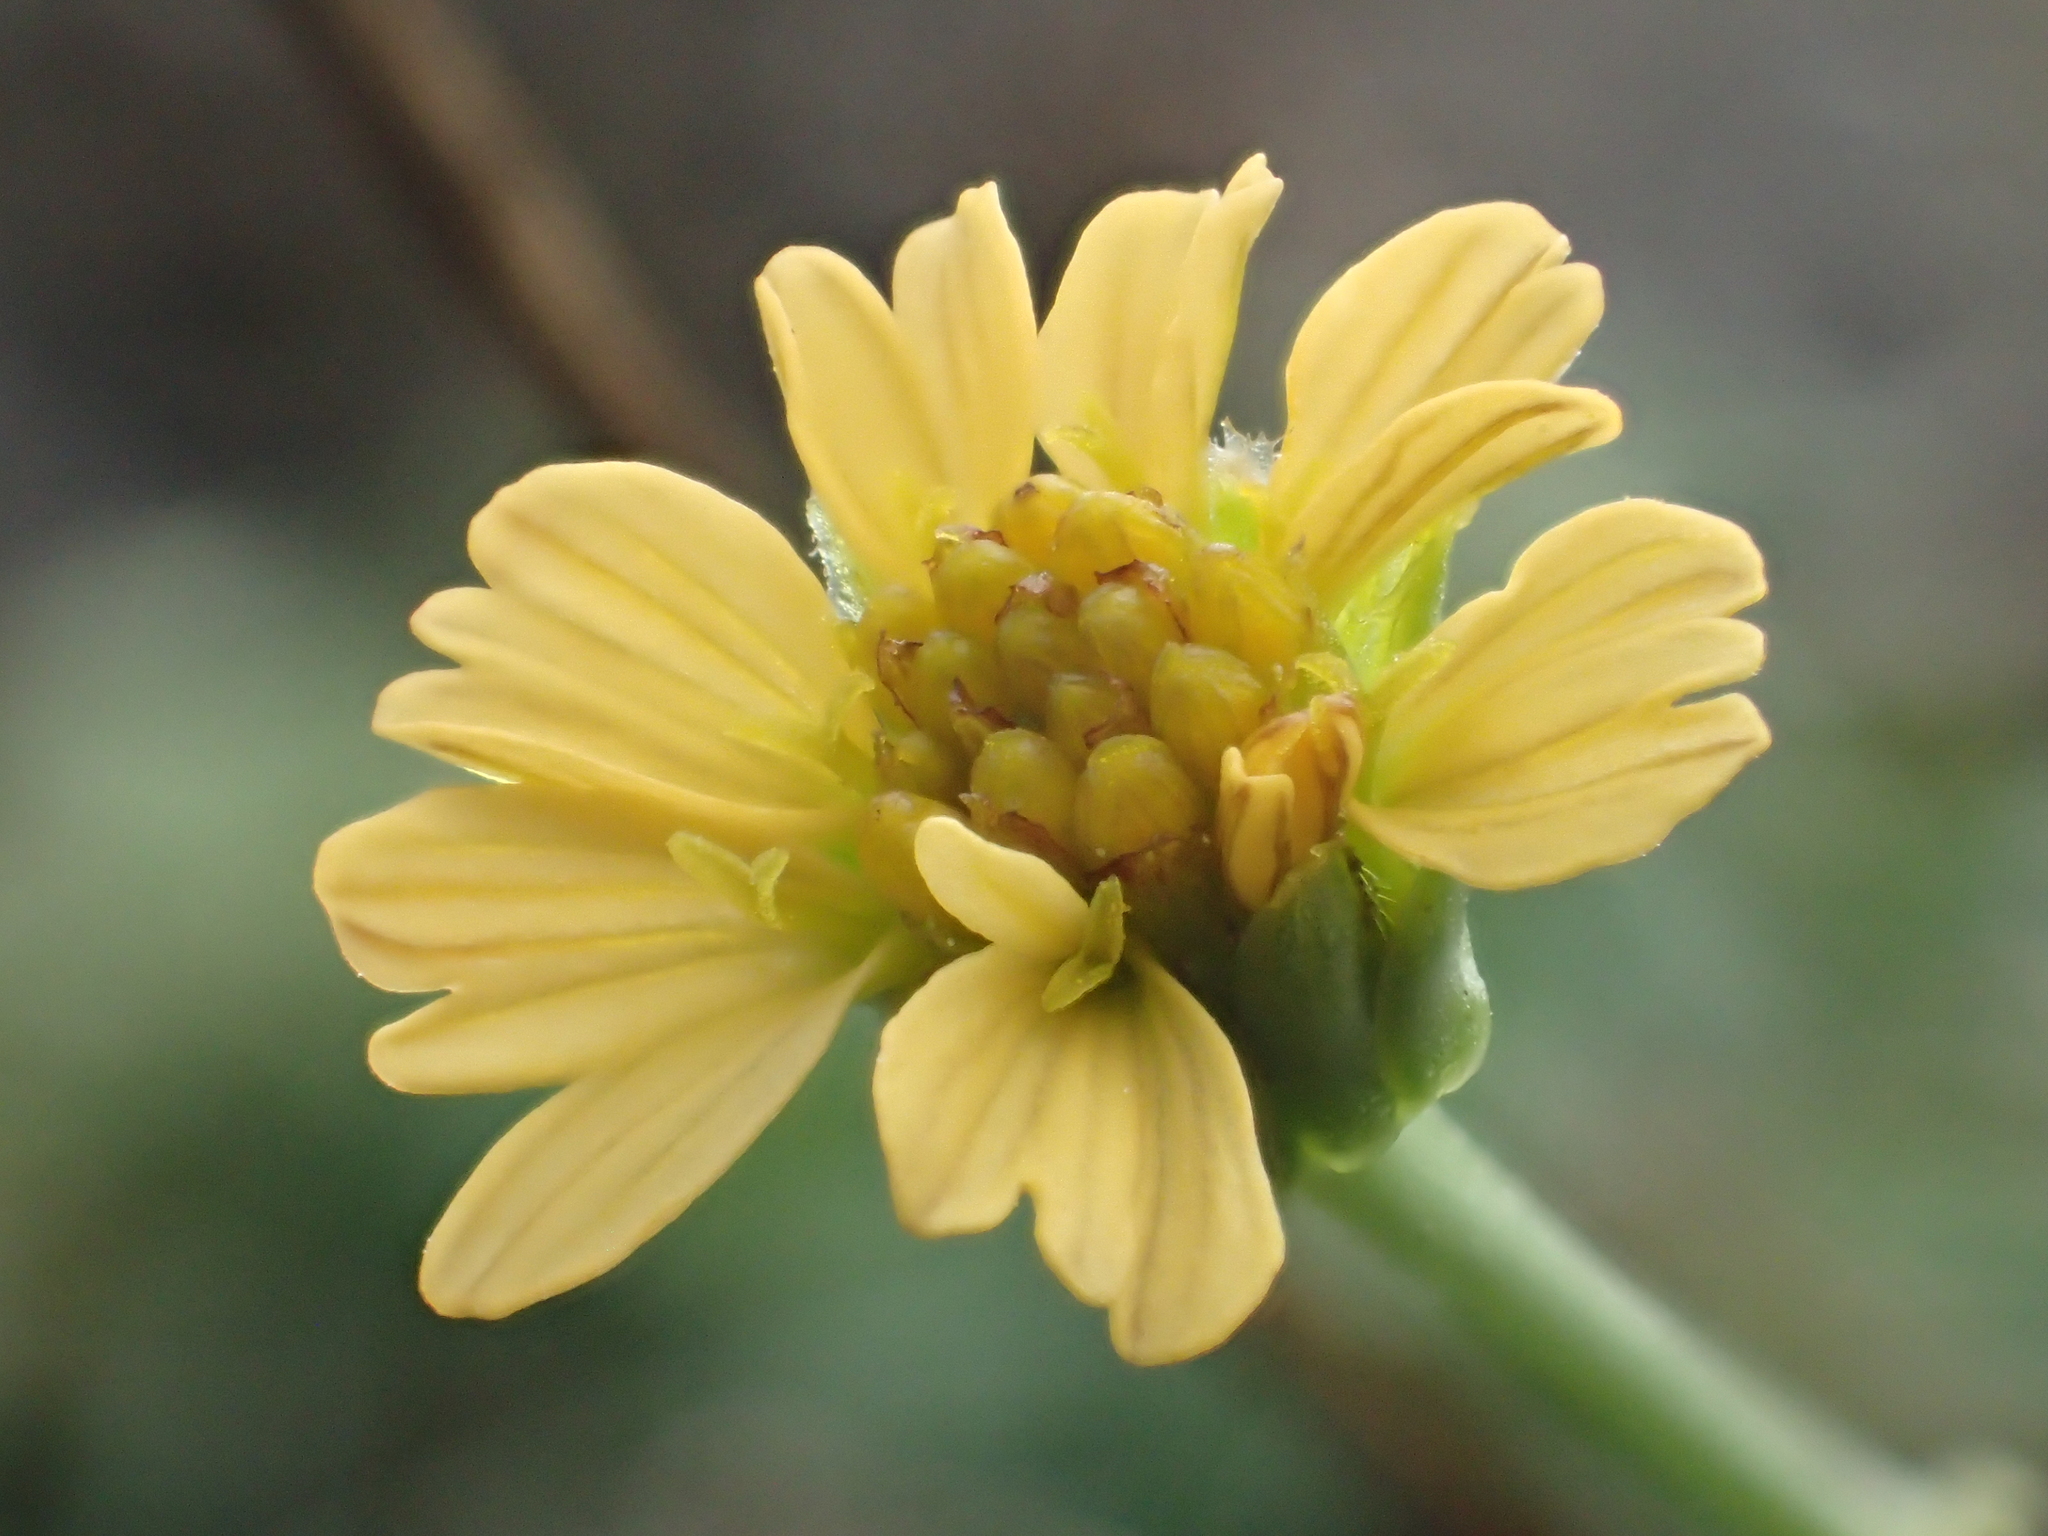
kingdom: Plantae
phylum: Tracheophyta
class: Magnoliopsida
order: Asterales
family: Asteraceae
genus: Glossocardia
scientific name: Glossocardia bidens
